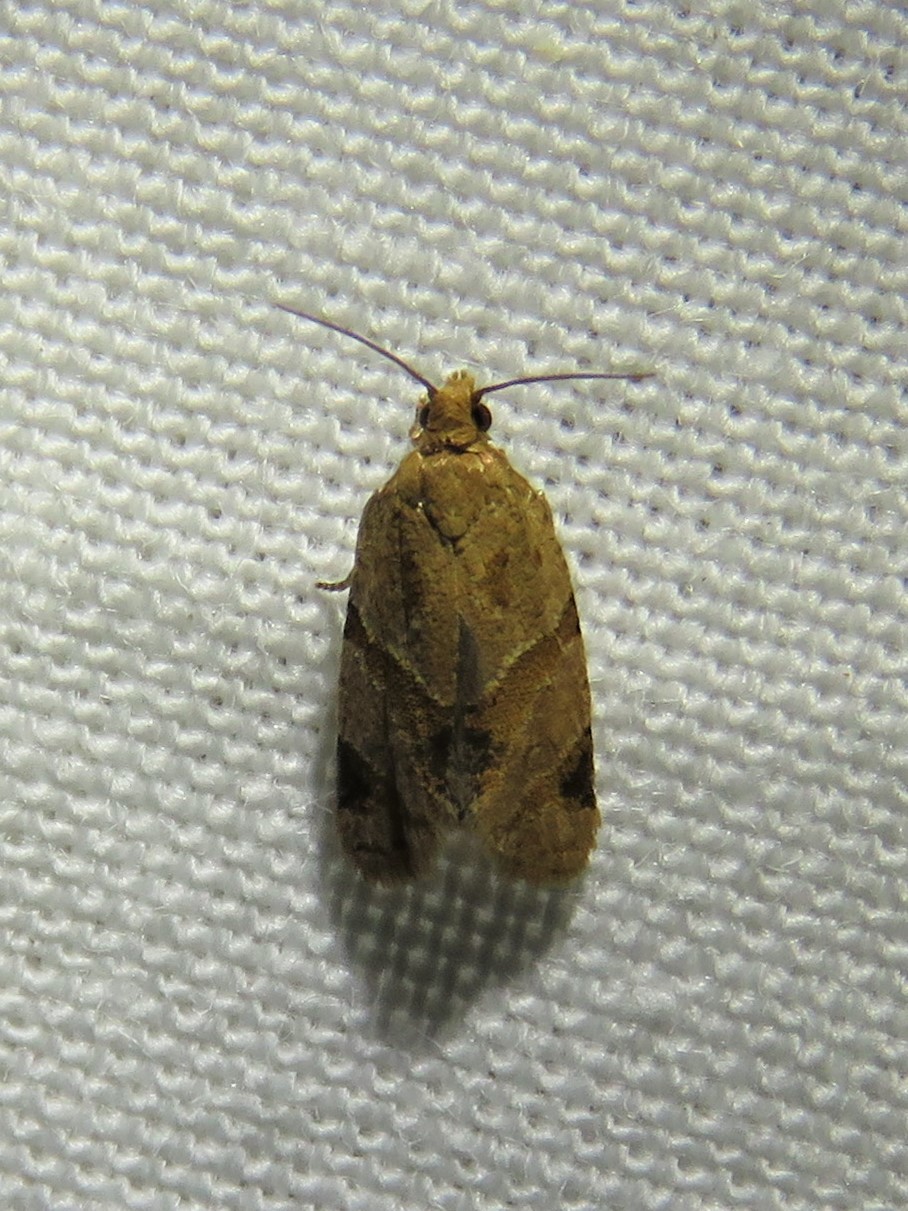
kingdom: Animalia
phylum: Arthropoda
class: Insecta
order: Lepidoptera
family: Tortricidae
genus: Clepsis
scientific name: Clepsis peritana
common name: Garden tortrix
